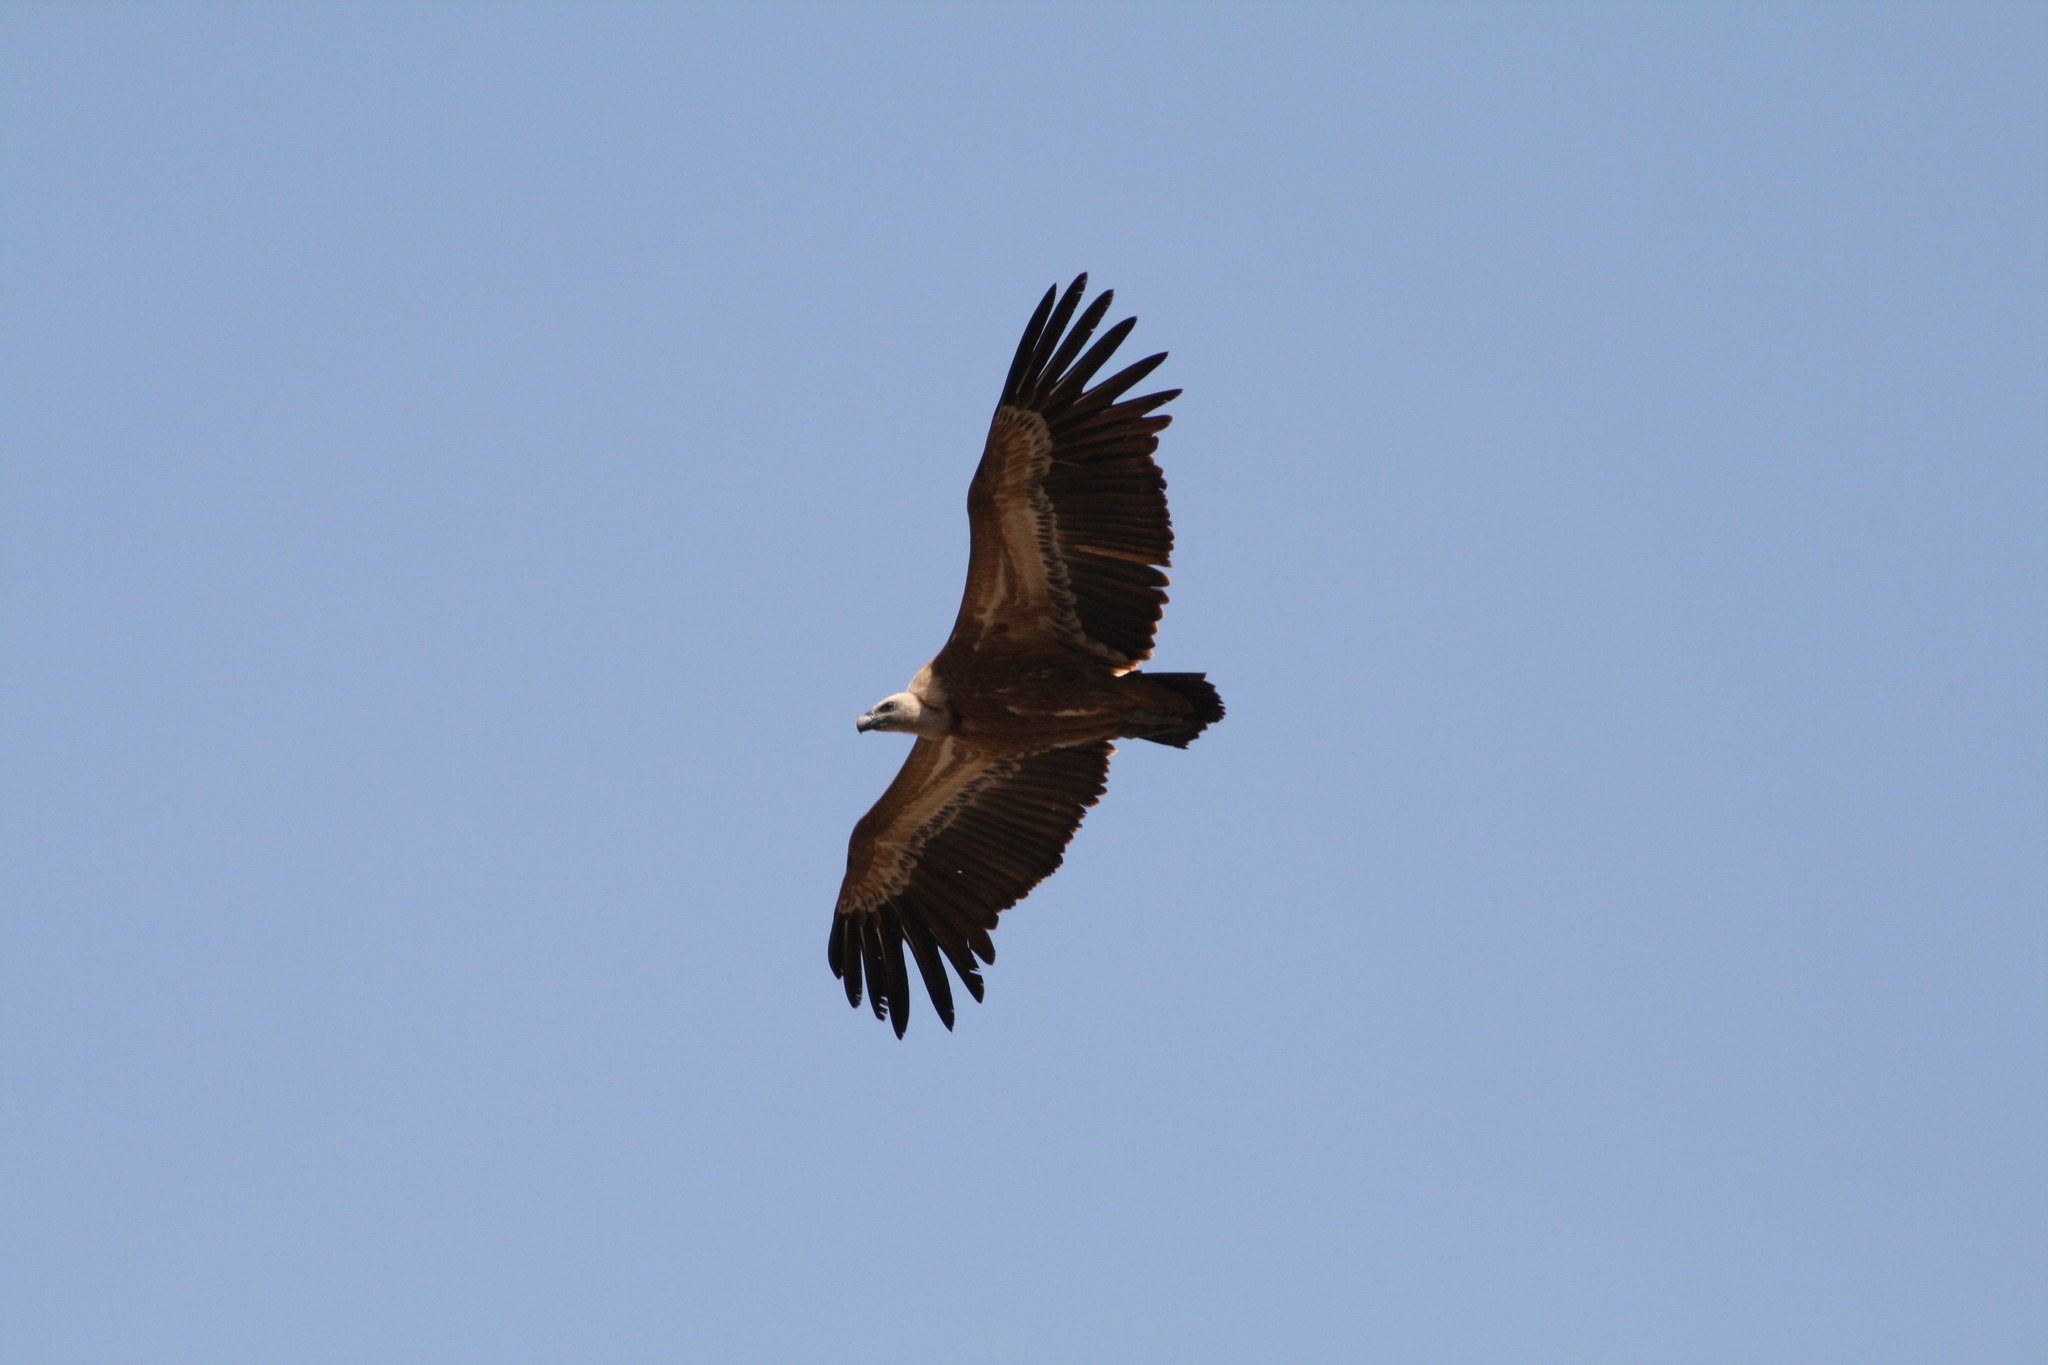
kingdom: Animalia
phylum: Chordata
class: Aves
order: Accipitriformes
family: Accipitridae
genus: Gyps
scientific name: Gyps fulvus
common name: Griffon vulture
